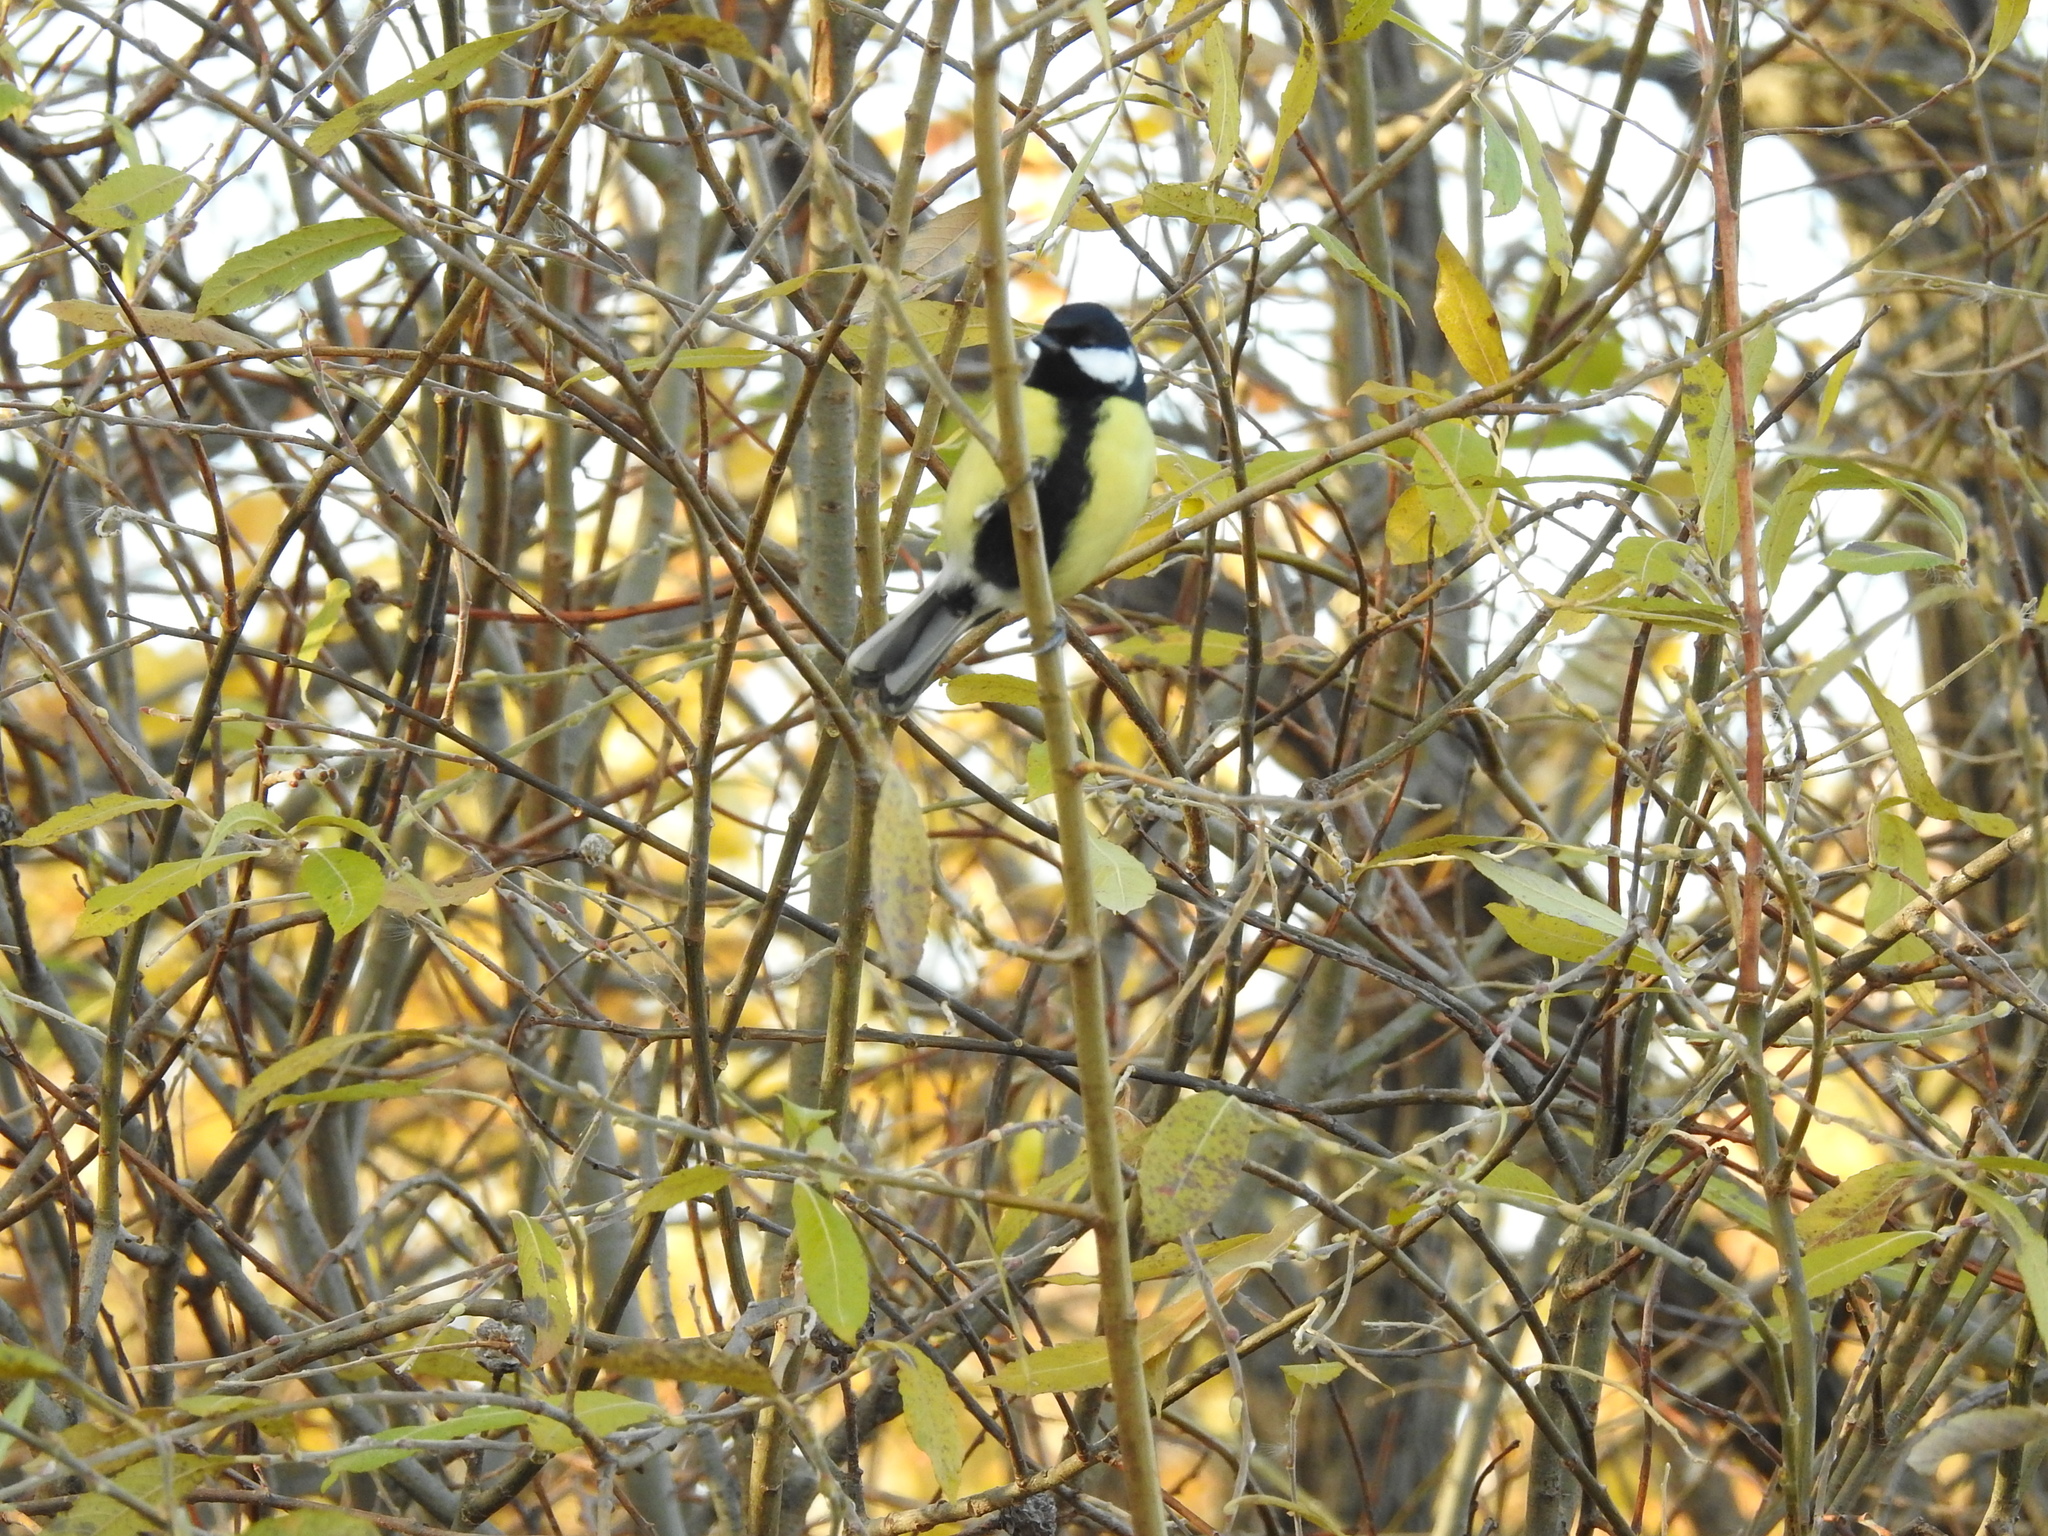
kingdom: Animalia
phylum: Chordata
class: Aves
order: Passeriformes
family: Paridae
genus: Parus
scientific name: Parus major
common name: Great tit
